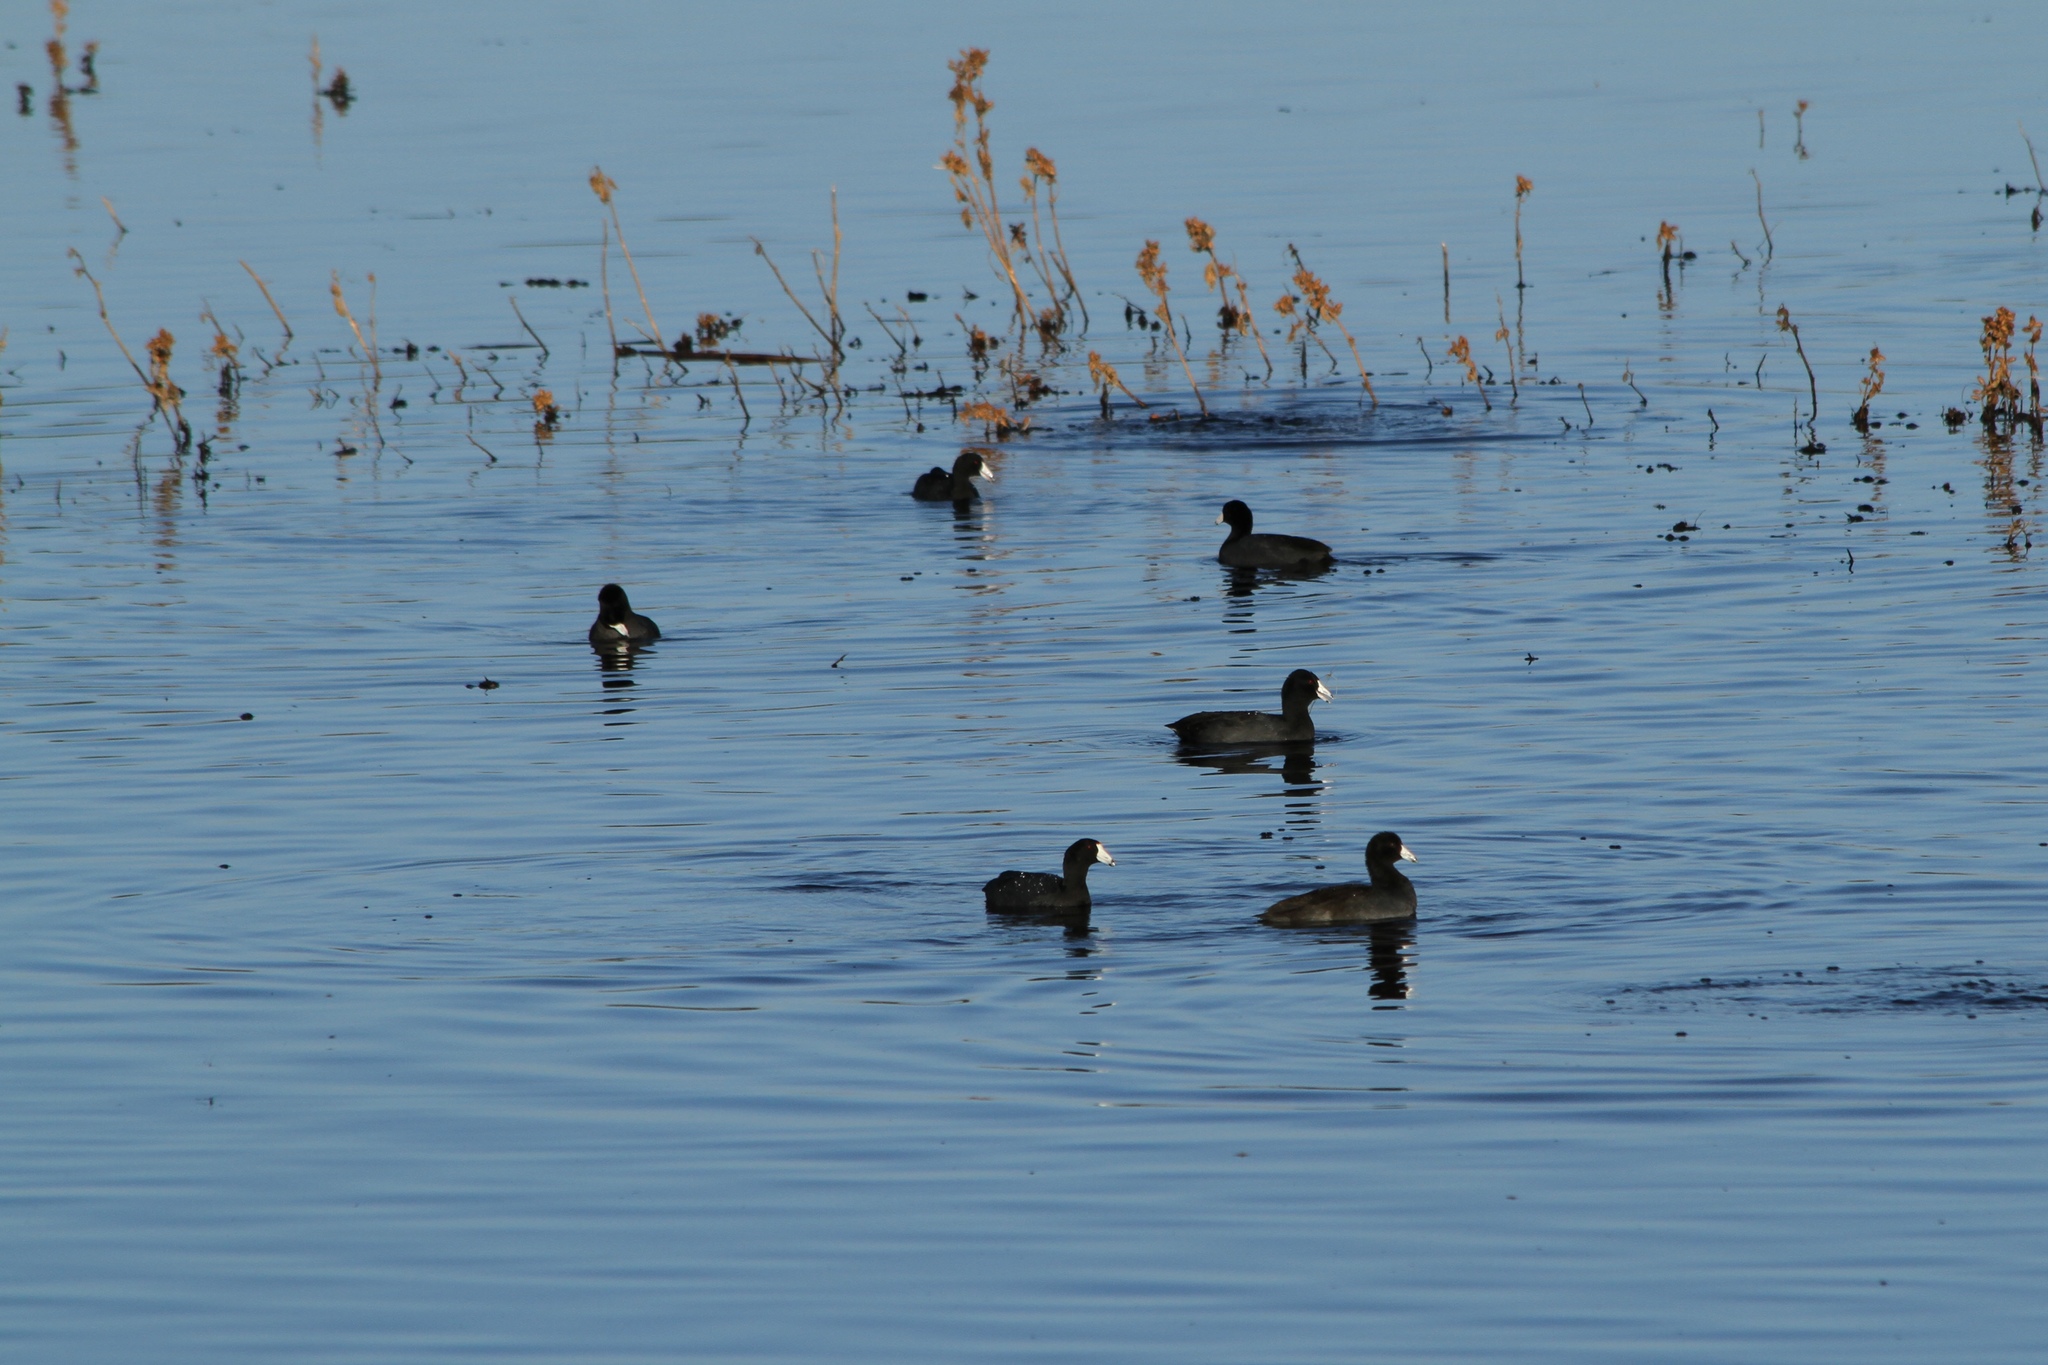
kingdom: Animalia
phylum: Chordata
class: Aves
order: Gruiformes
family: Rallidae
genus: Fulica
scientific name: Fulica americana
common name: American coot
